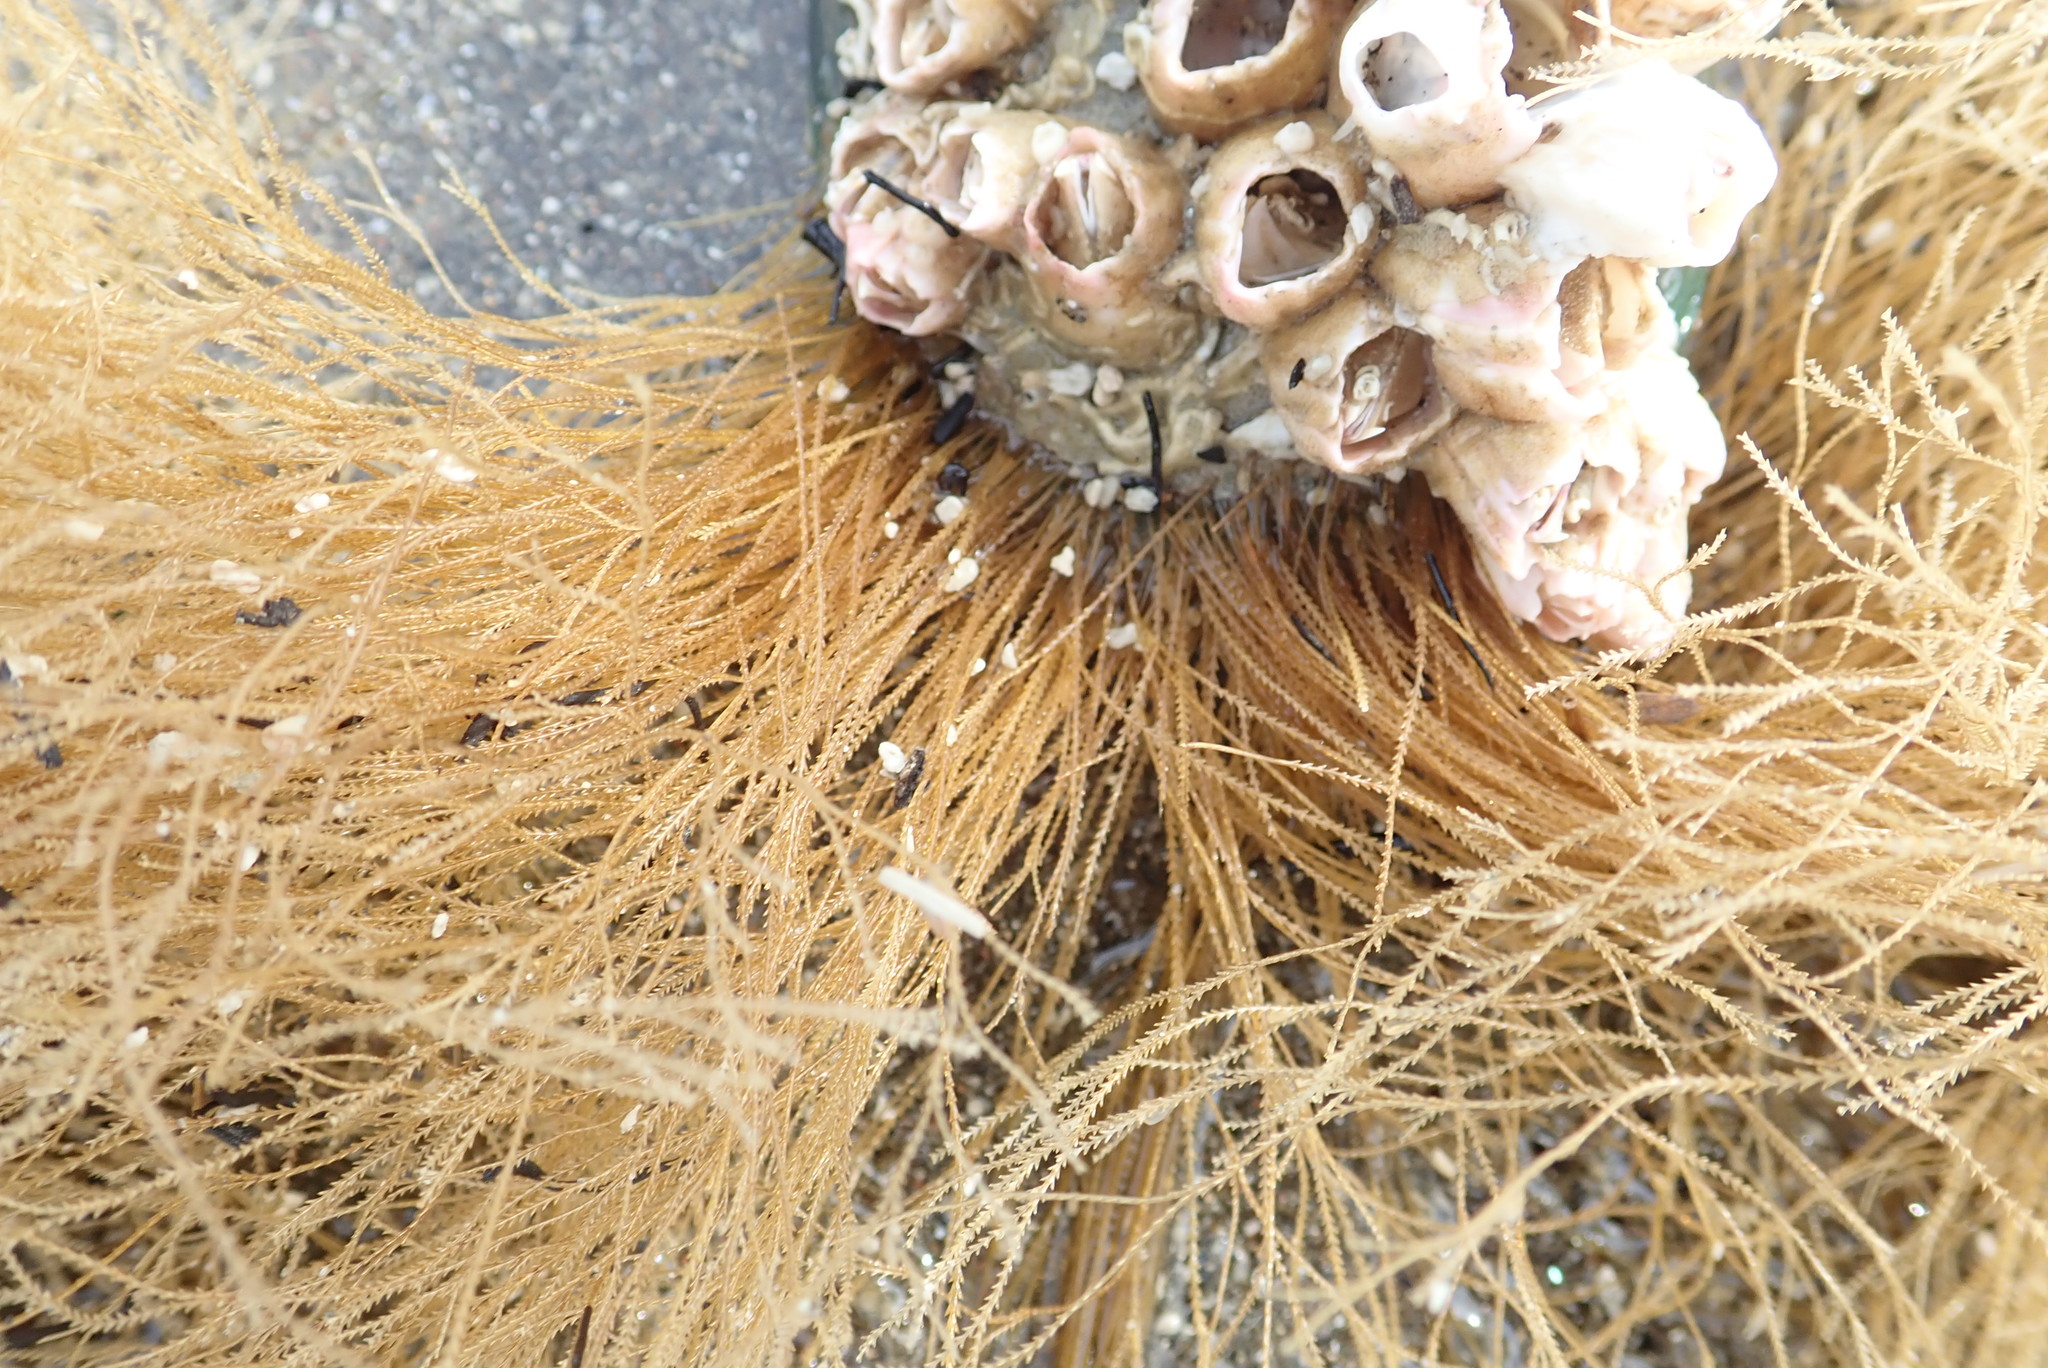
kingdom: Animalia
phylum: Cnidaria
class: Hydrozoa
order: Leptothecata
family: Sertulariidae
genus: Amphisbetia
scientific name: Amphisbetia bispinosa
